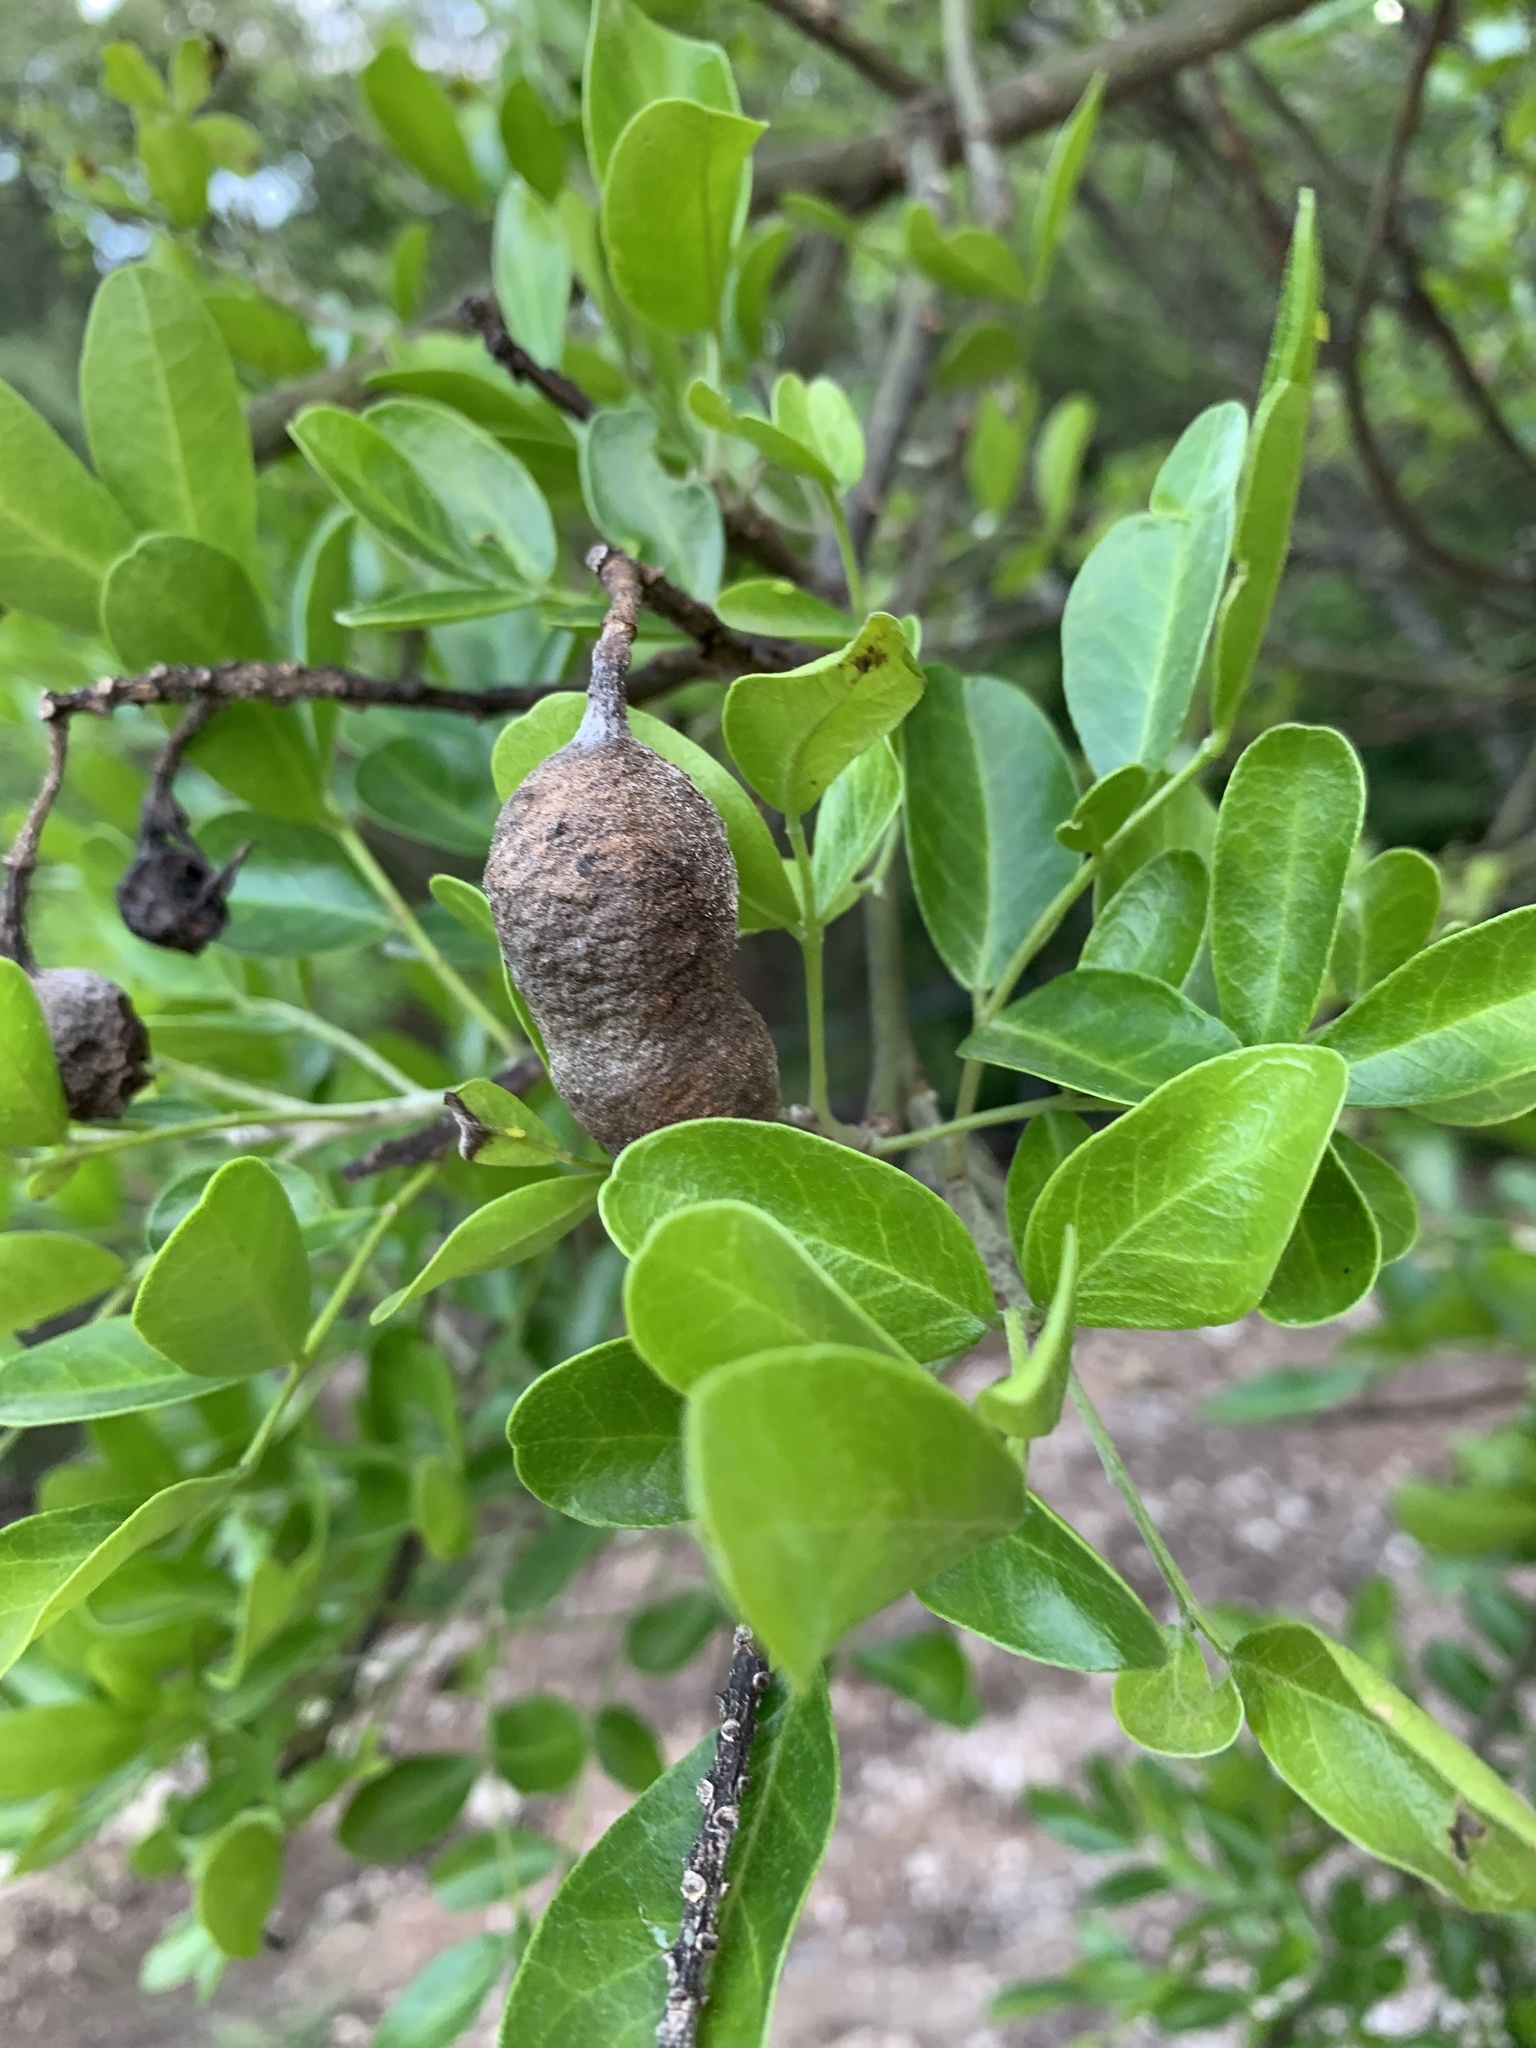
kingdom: Plantae
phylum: Tracheophyta
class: Magnoliopsida
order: Fabales
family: Fabaceae
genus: Dermatophyllum
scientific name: Dermatophyllum secundiflorum
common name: Texas-mountain-laurel
